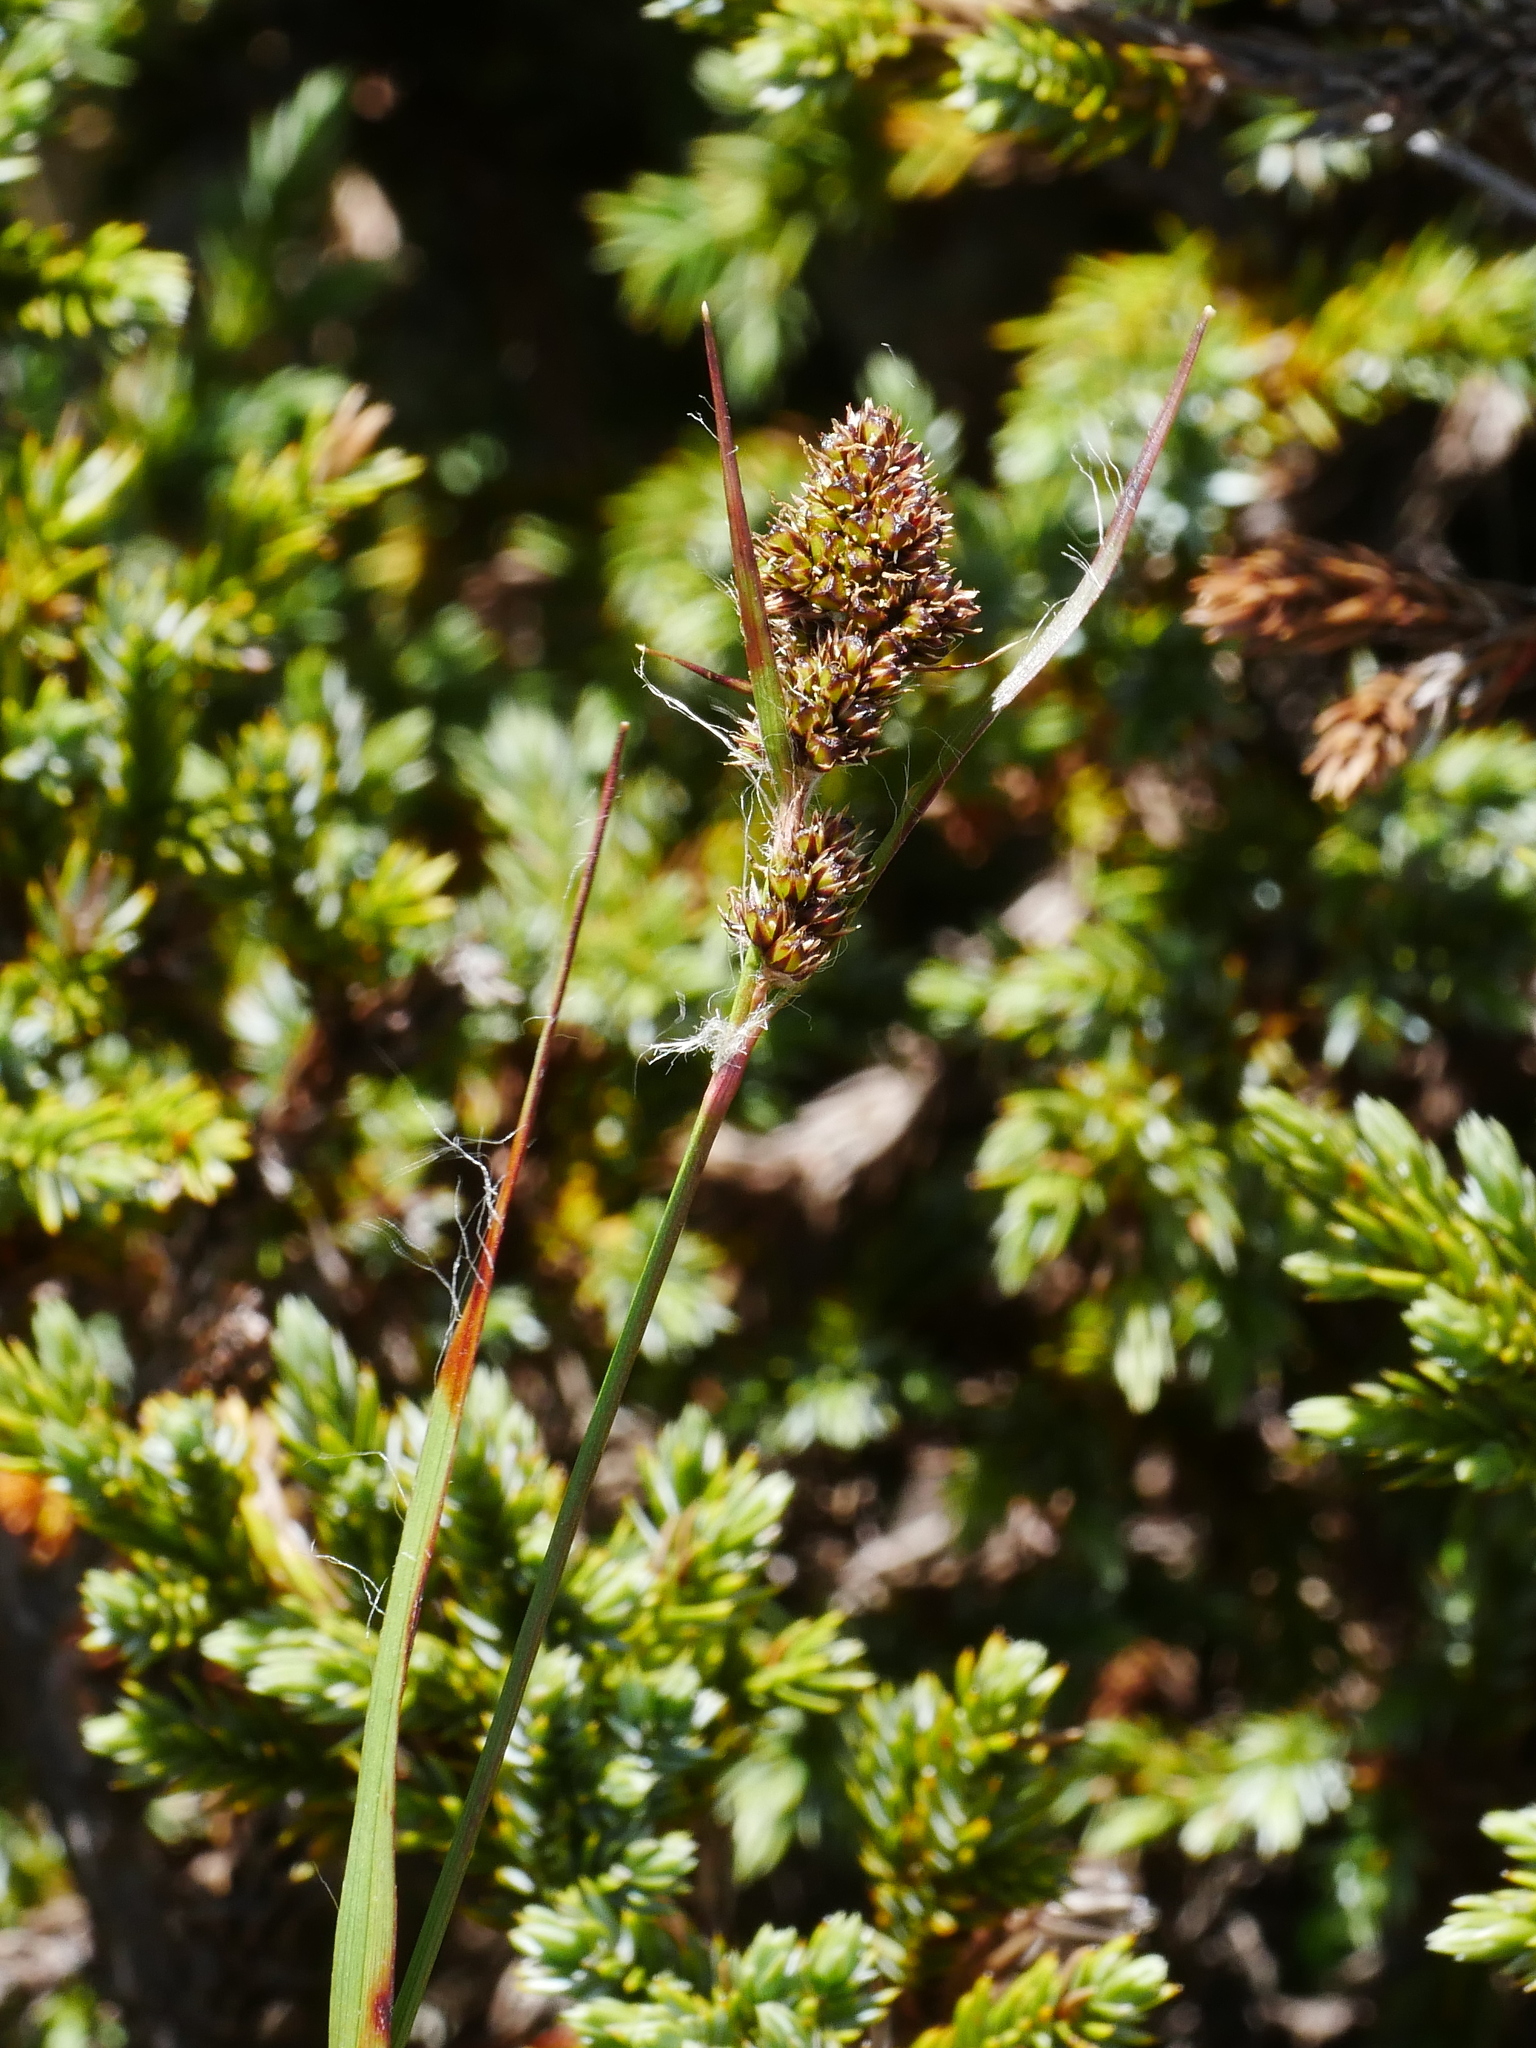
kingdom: Plantae
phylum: Tracheophyta
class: Liliopsida
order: Poales
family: Juncaceae
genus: Luzula
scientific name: Luzula taiwaniana
